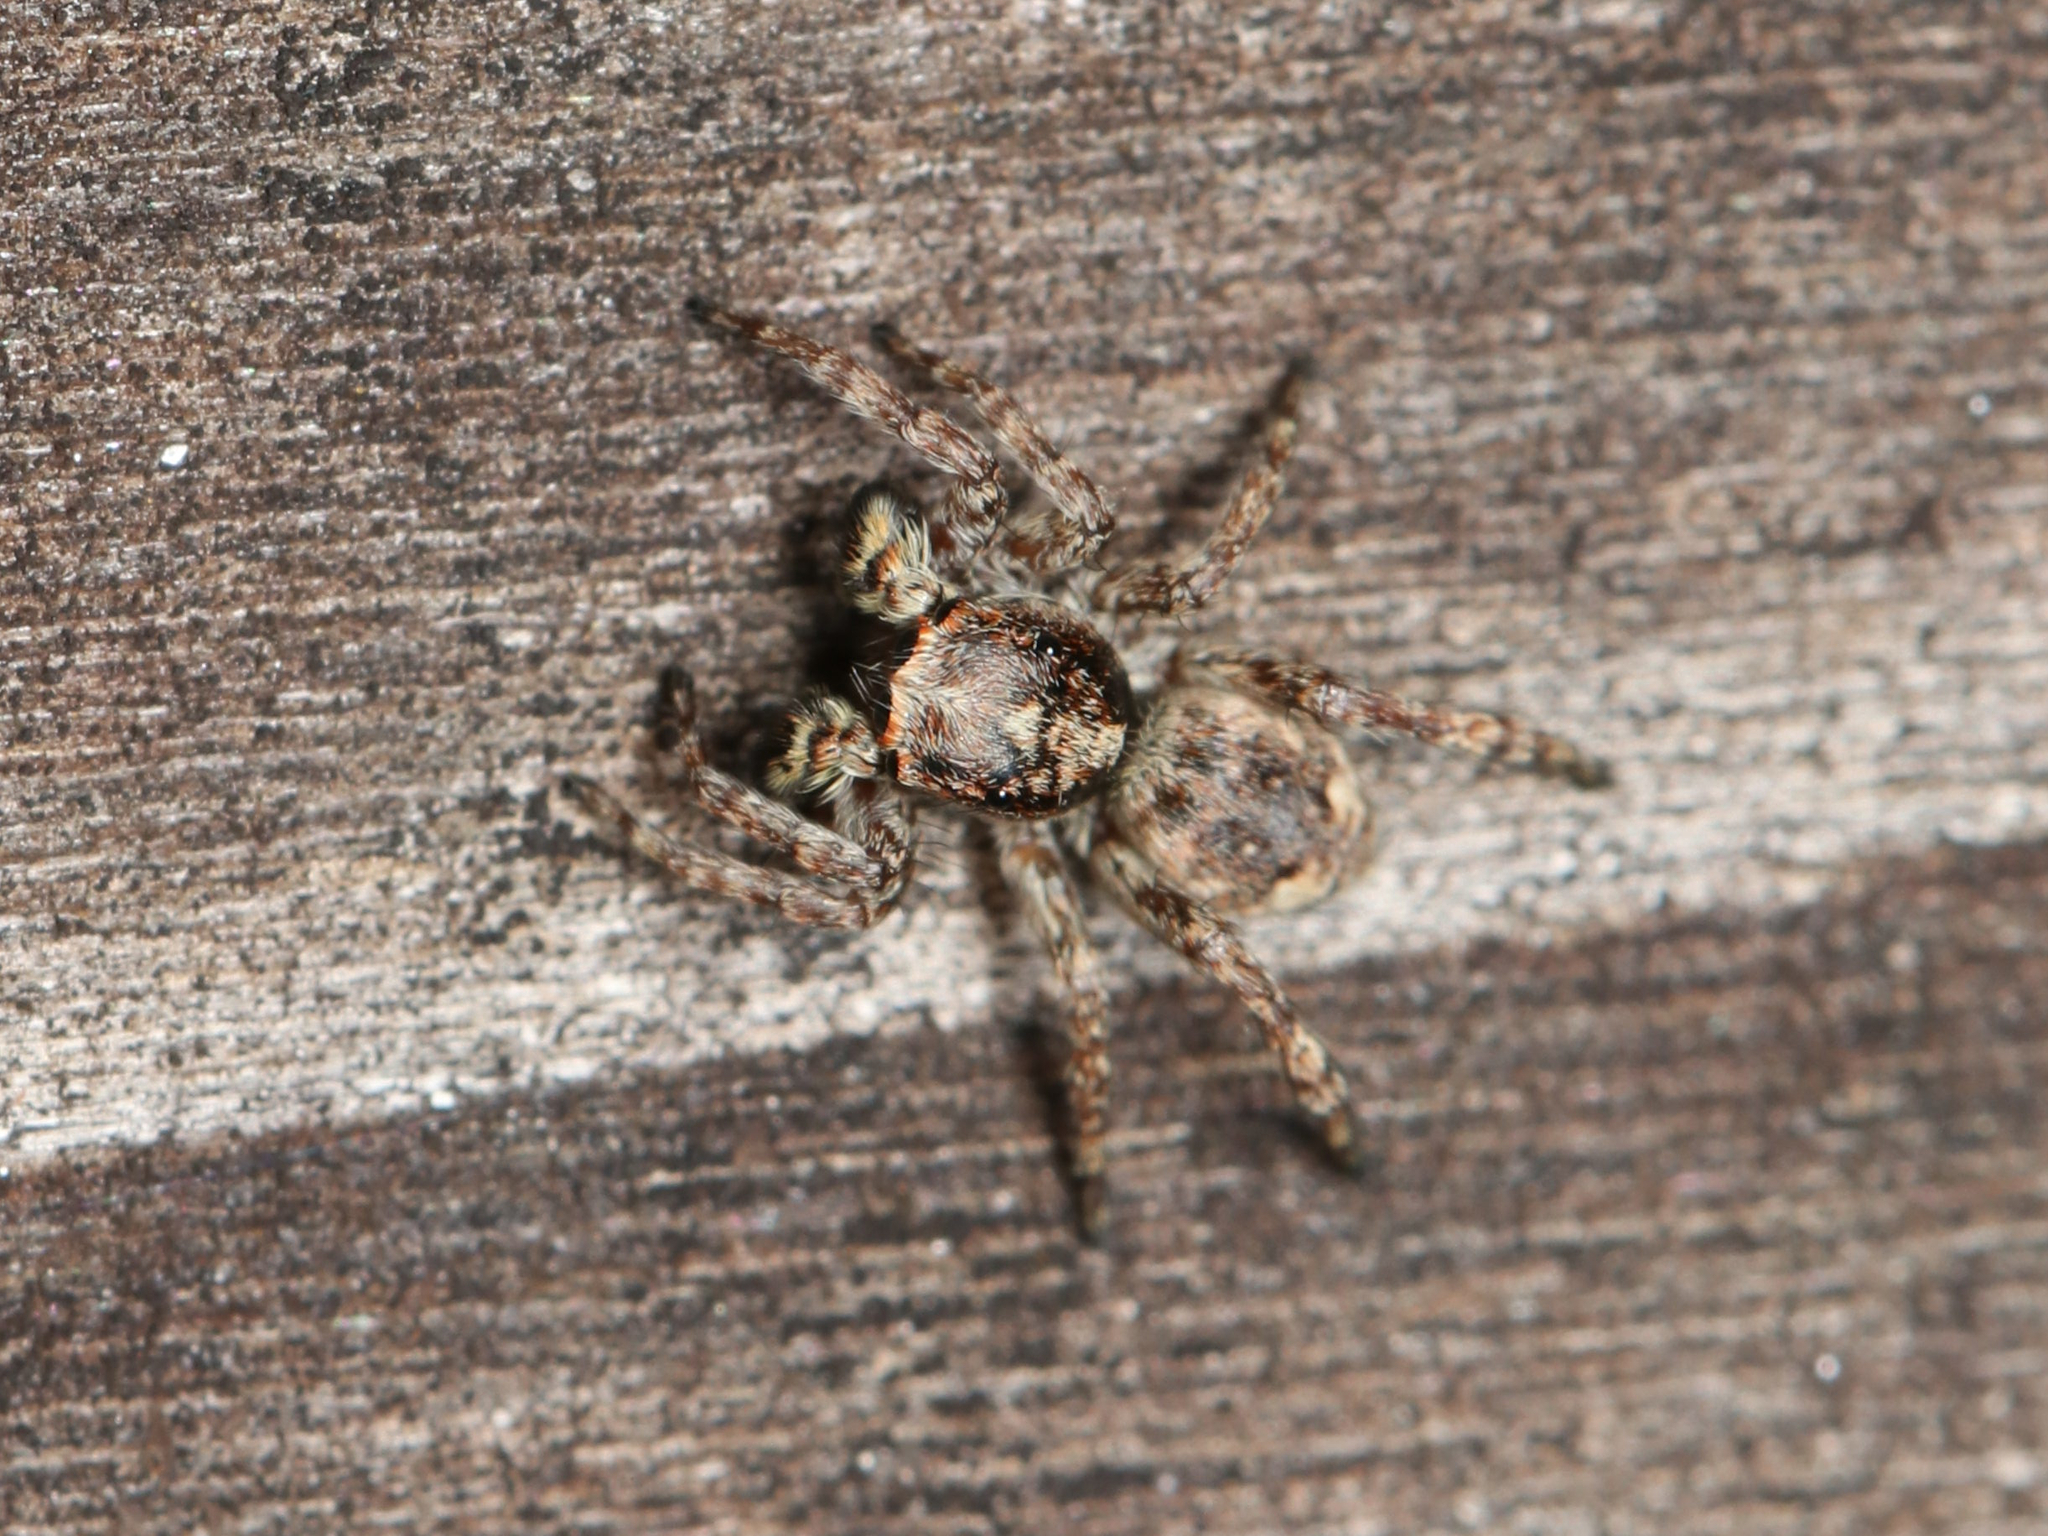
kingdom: Animalia
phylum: Arthropoda
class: Arachnida
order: Araneae
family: Salticidae
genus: Attulus
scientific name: Attulus fasciger
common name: Asiatic wall jumping spider
